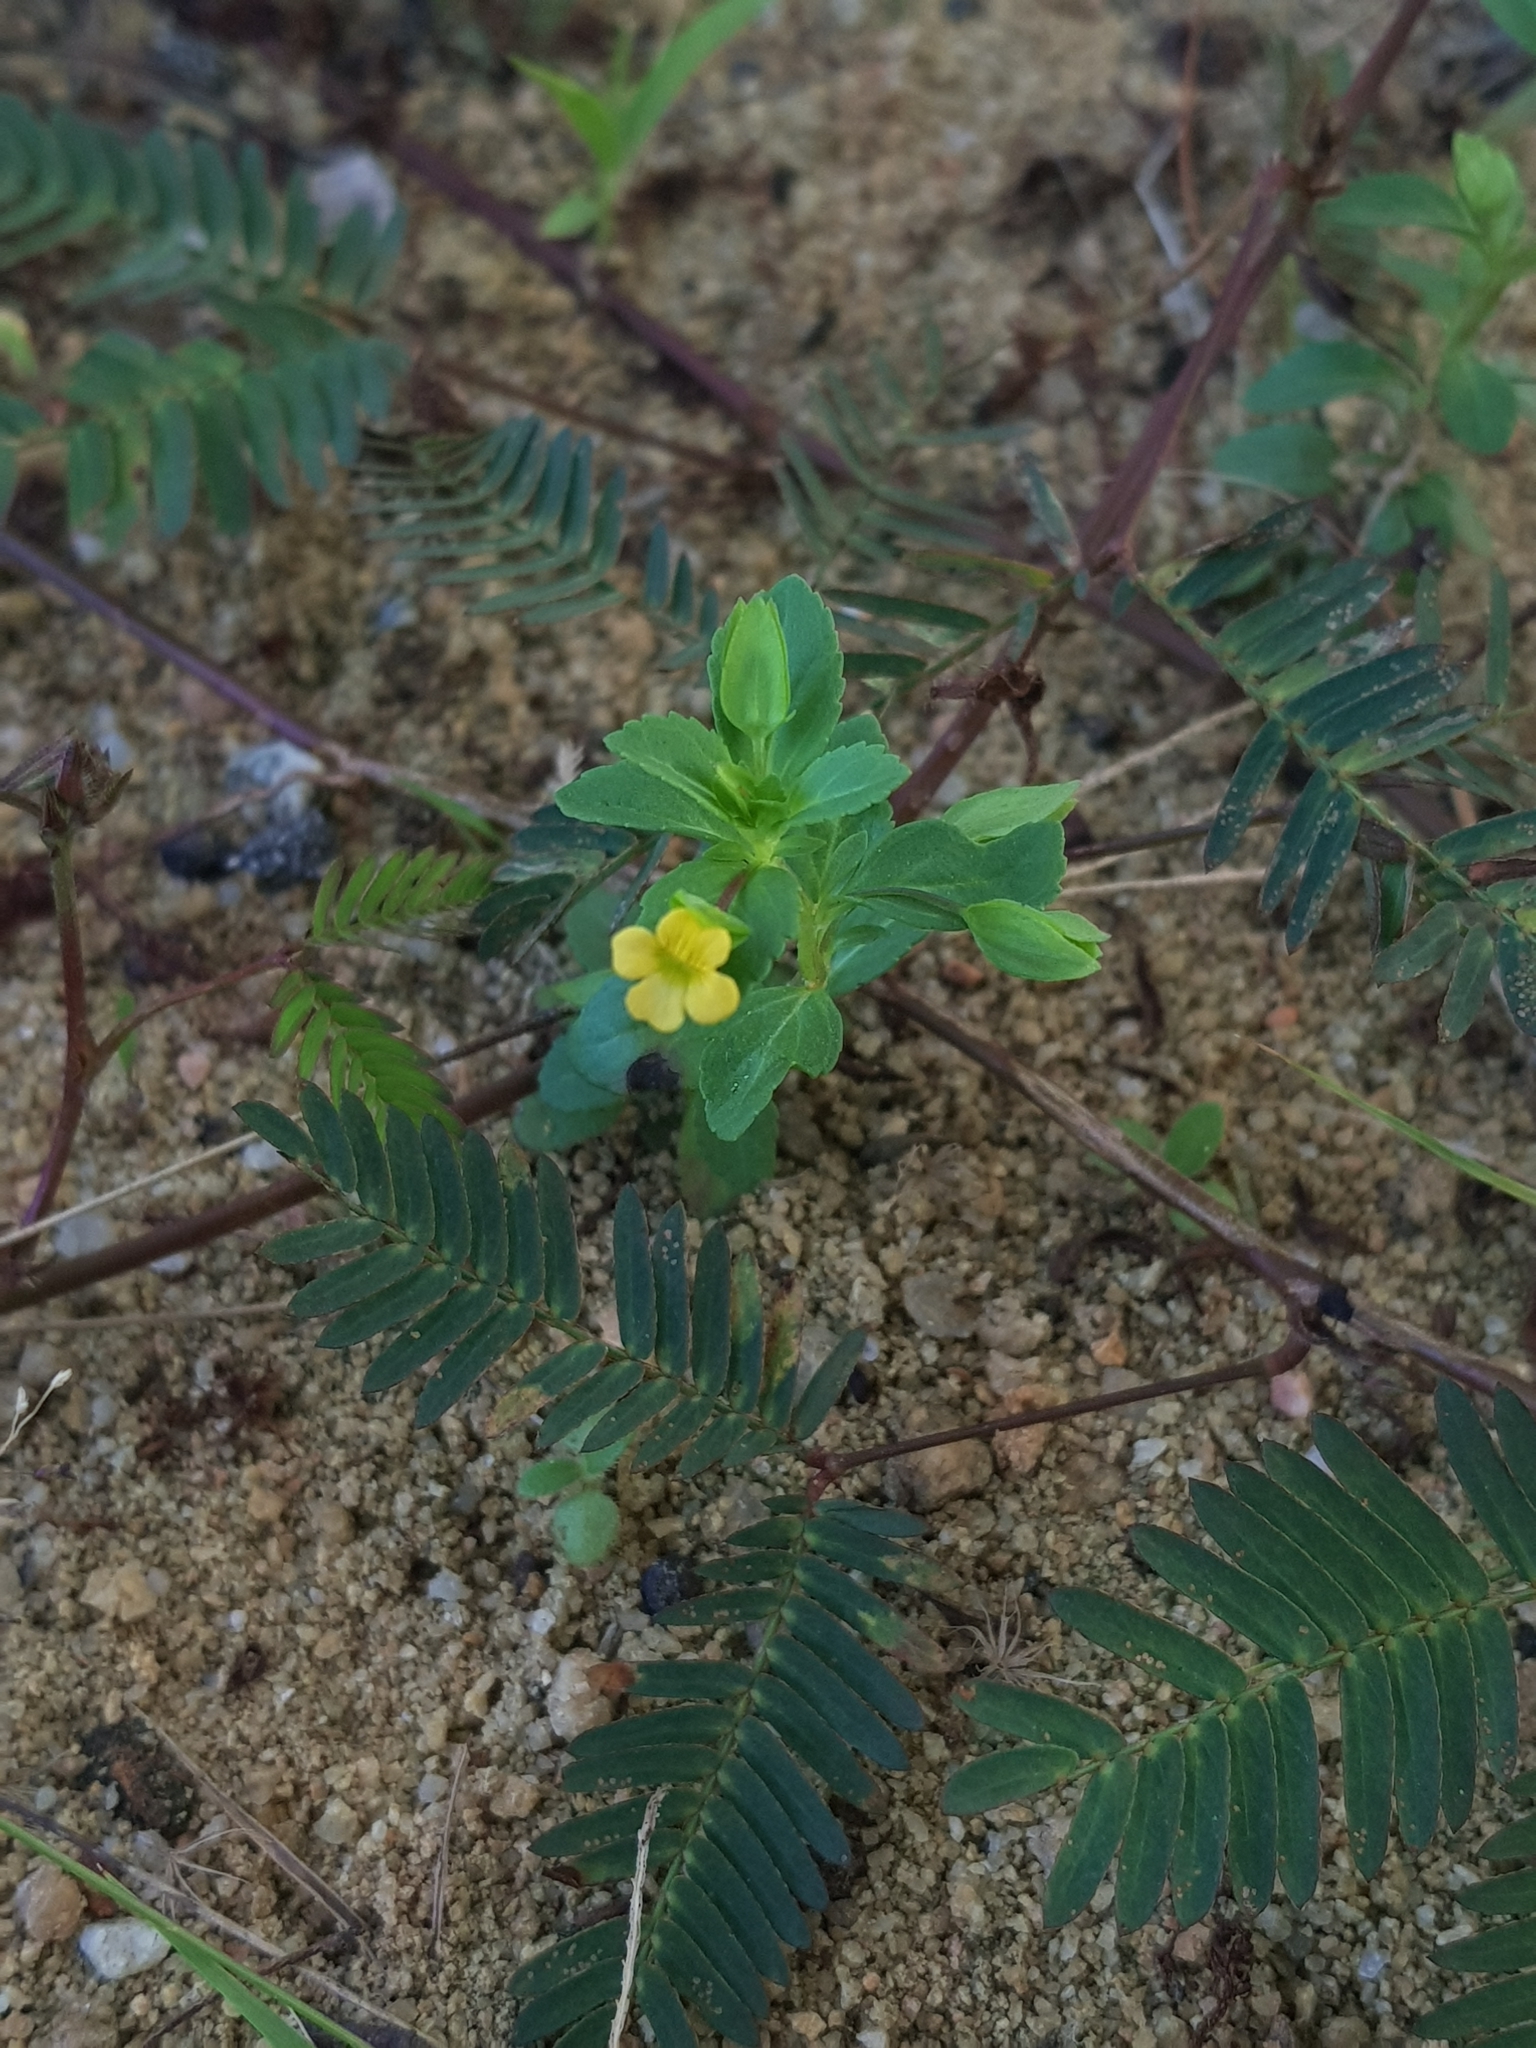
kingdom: Plantae
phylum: Tracheophyta
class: Magnoliopsida
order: Lamiales
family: Plantaginaceae
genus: Mecardonia
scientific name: Mecardonia procumbens
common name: Baby jump-up
